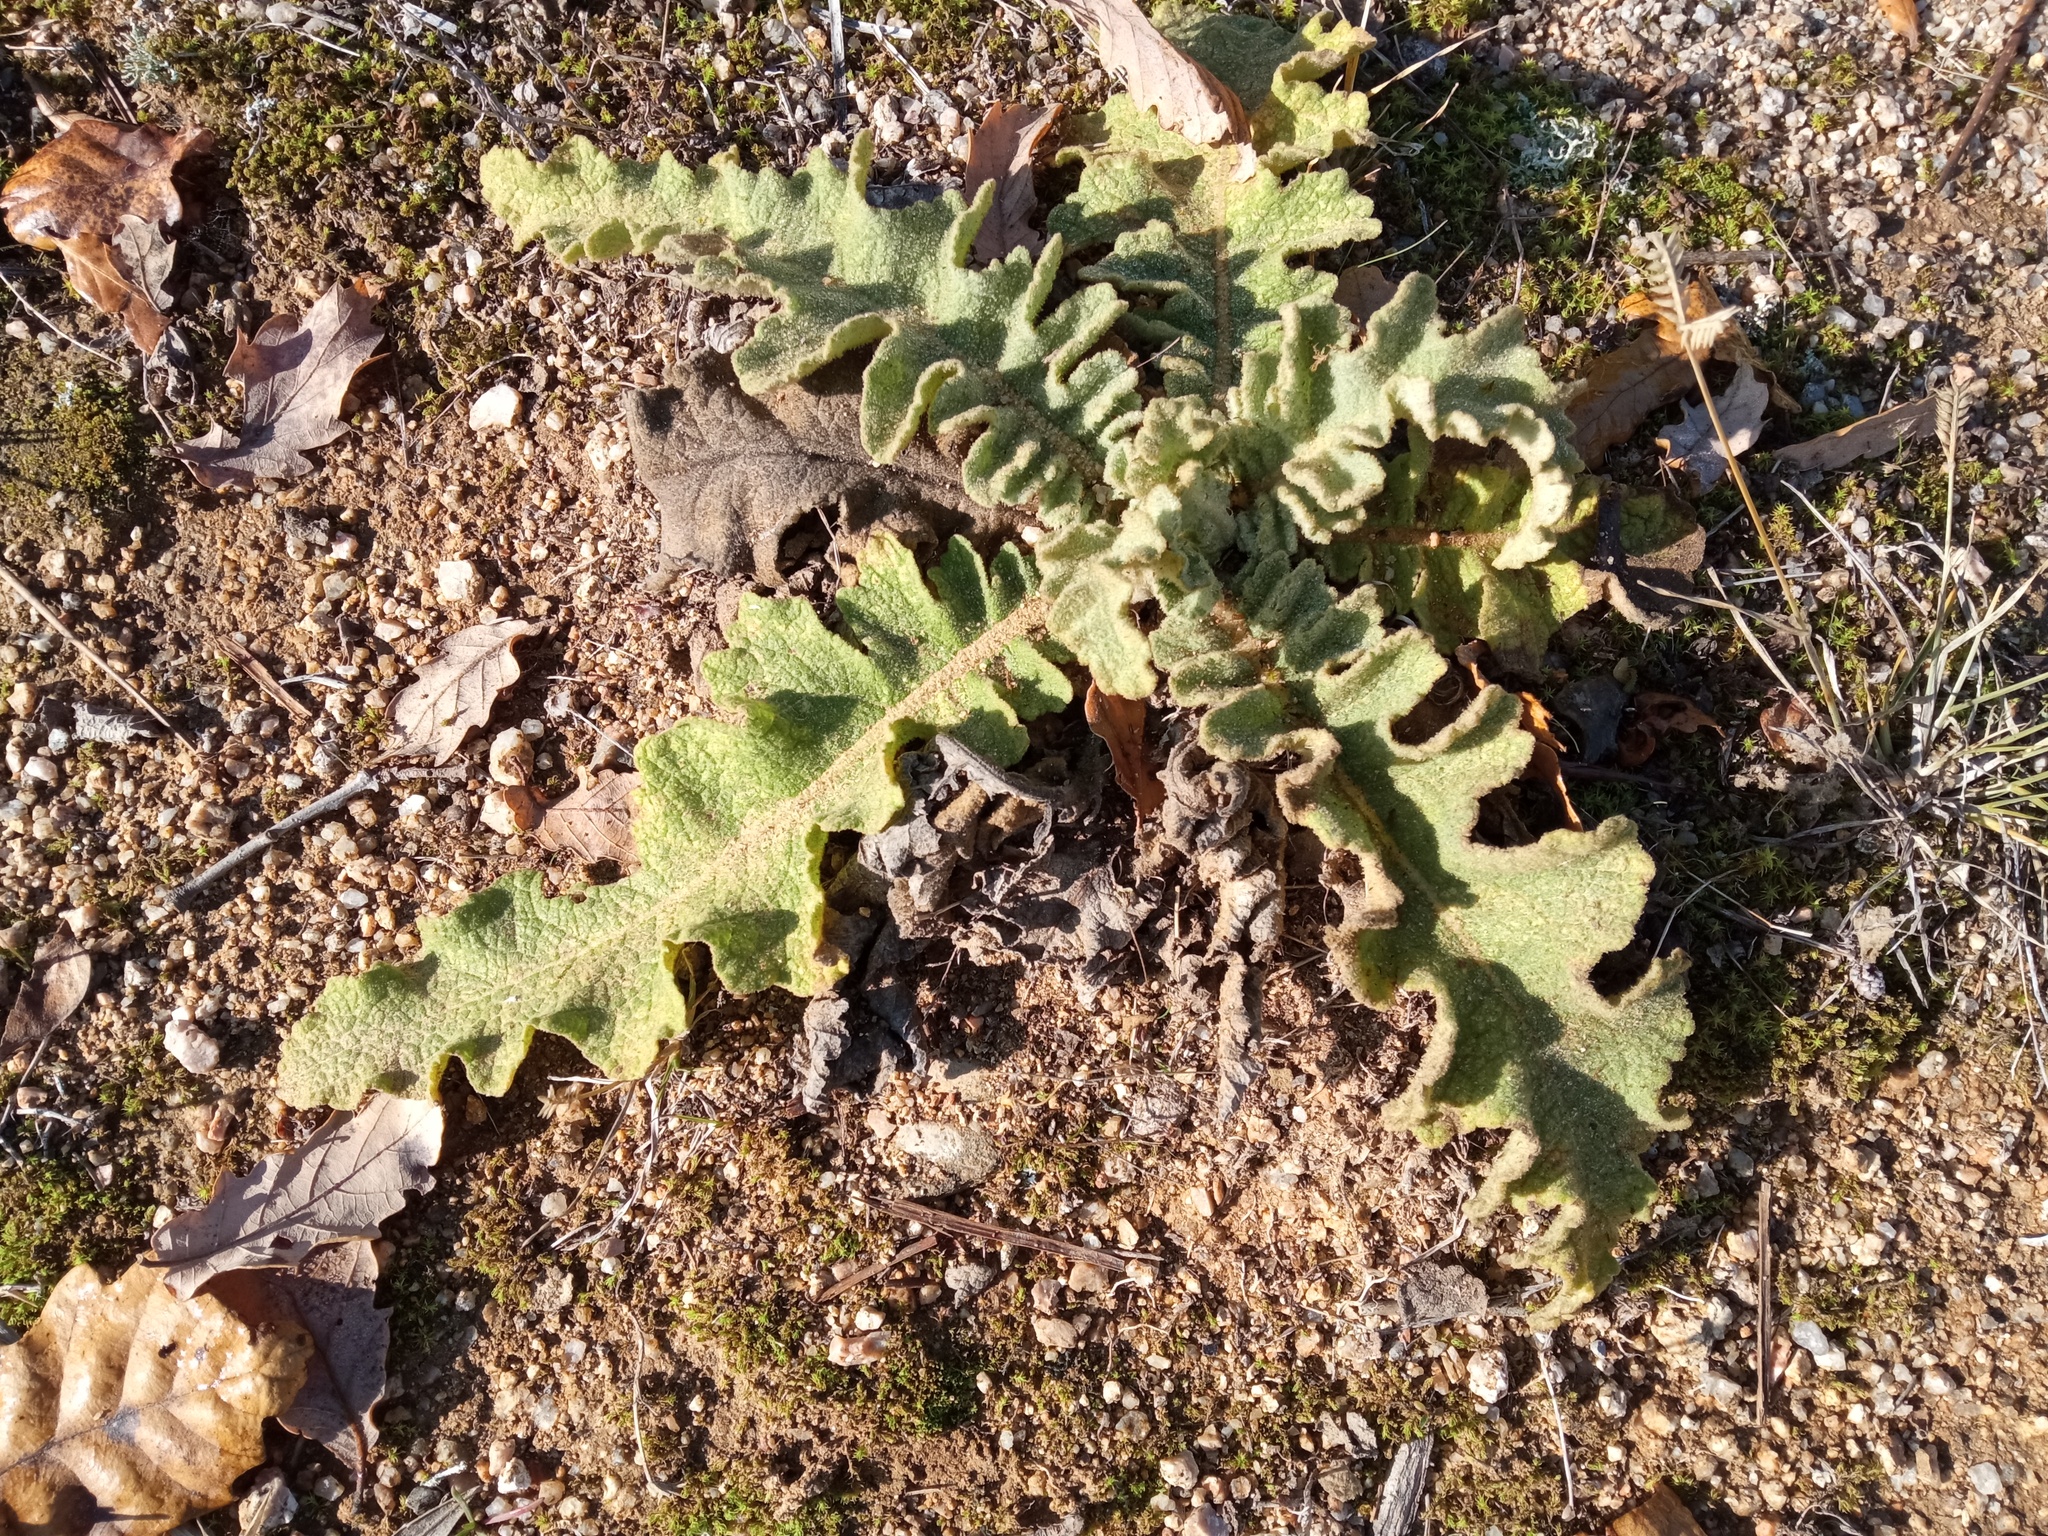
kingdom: Plantae
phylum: Tracheophyta
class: Magnoliopsida
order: Lamiales
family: Scrophulariaceae
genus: Verbascum
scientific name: Verbascum sinuatum
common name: Wavyleaf mullein
